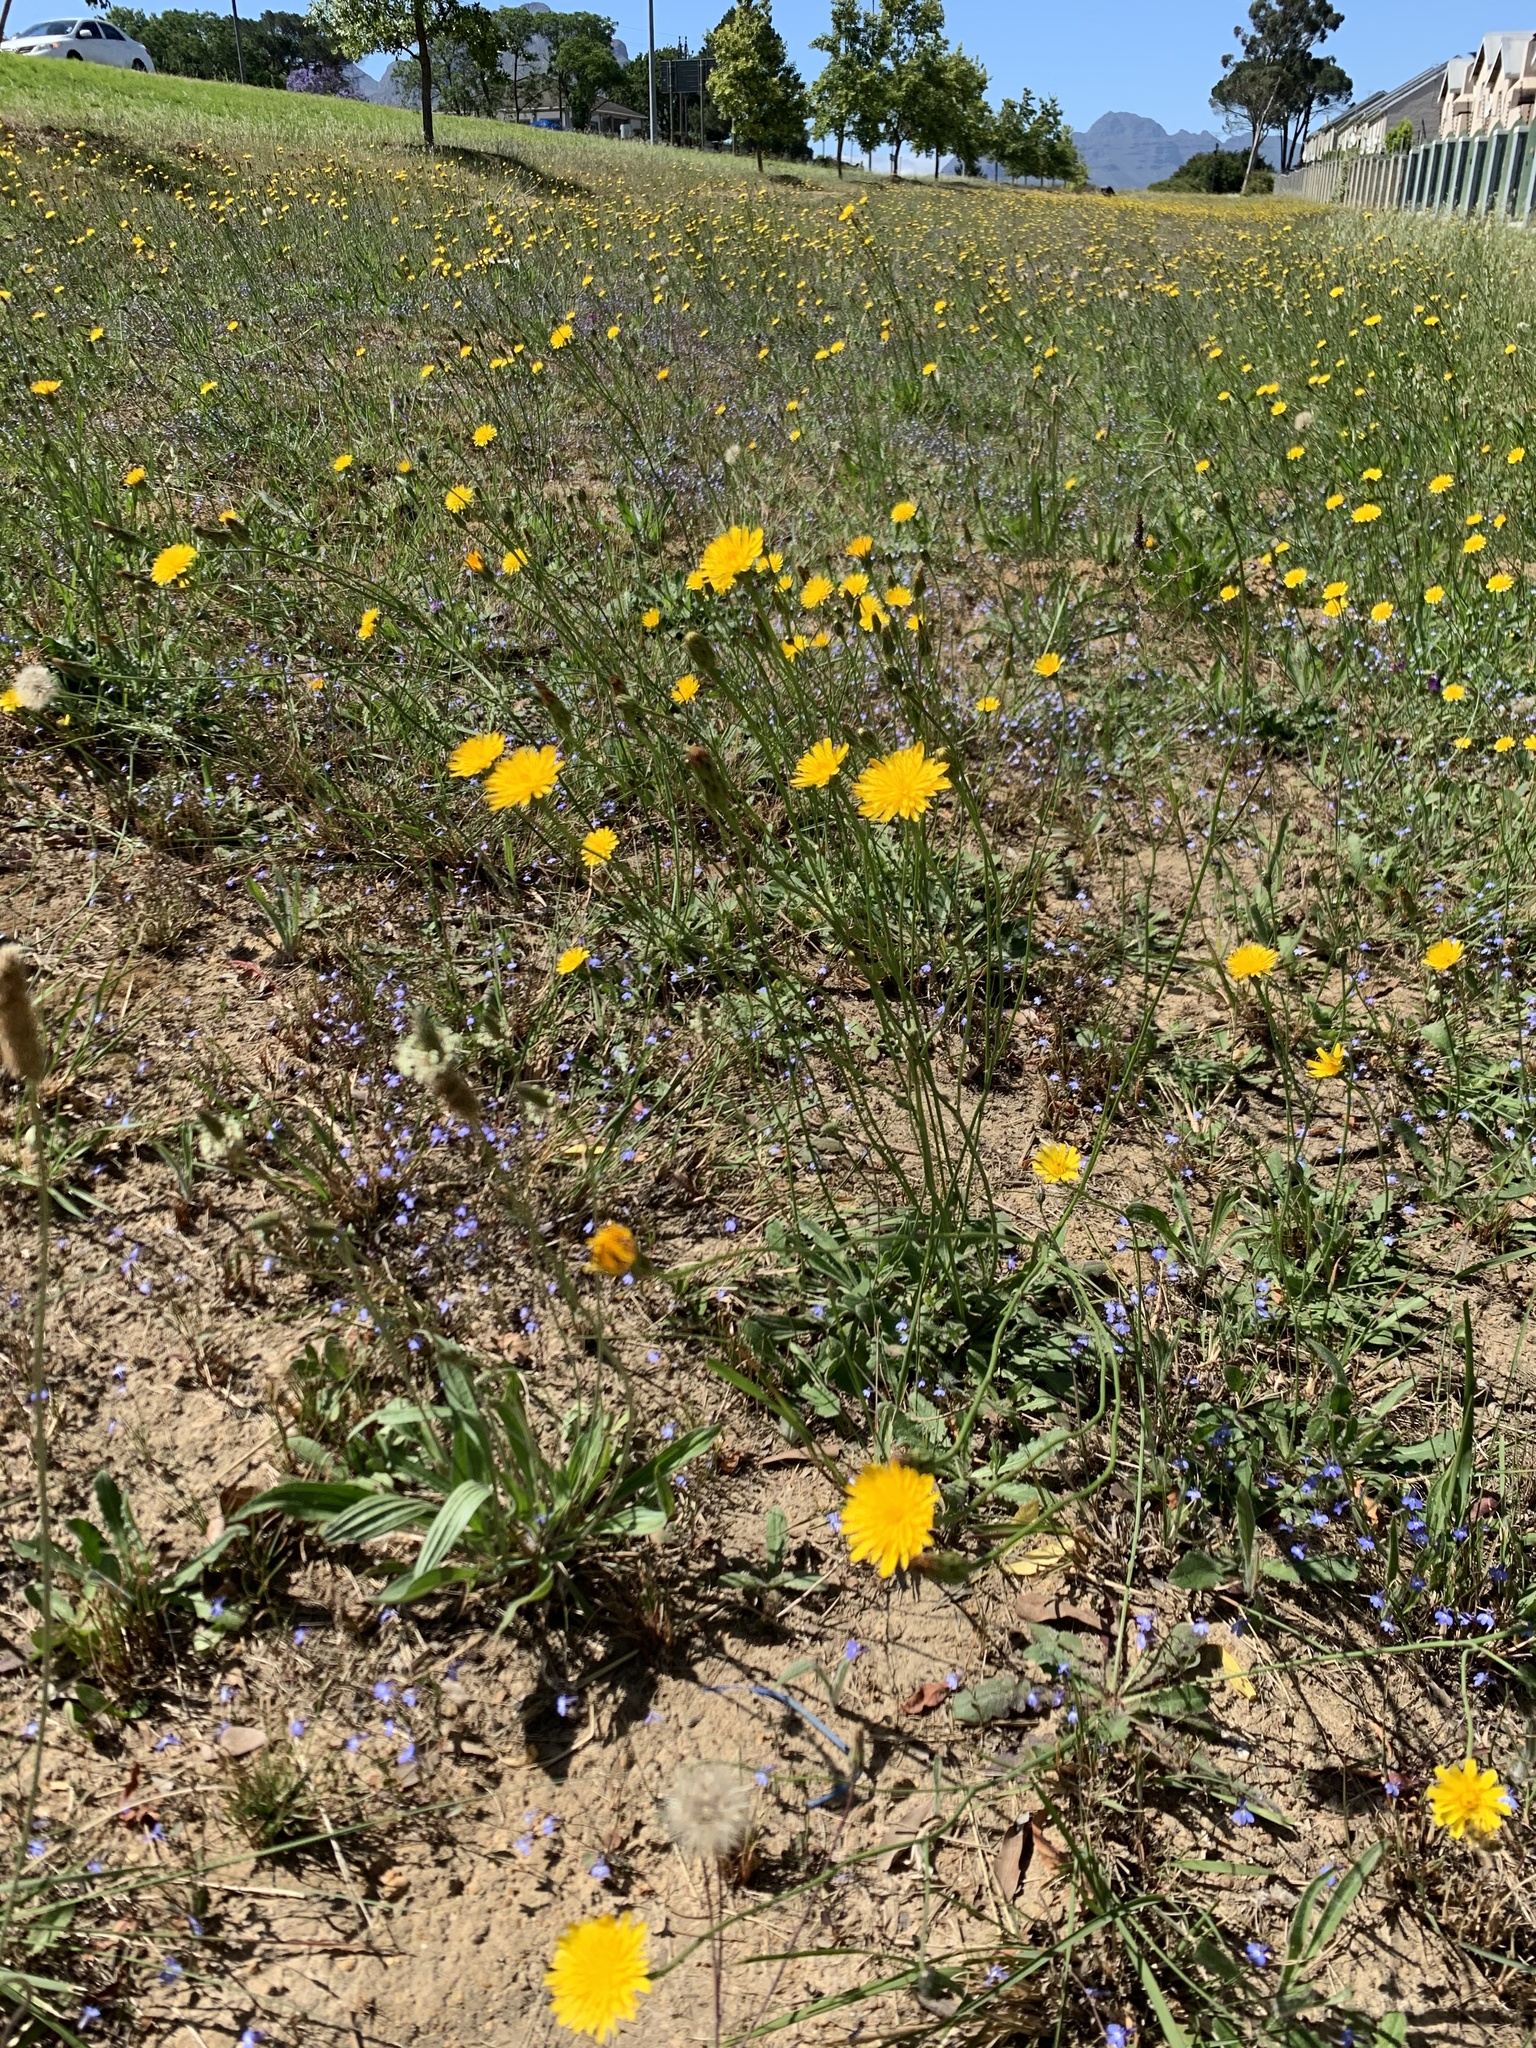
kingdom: Plantae
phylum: Tracheophyta
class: Magnoliopsida
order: Asterales
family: Asteraceae
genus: Hypochaeris
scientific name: Hypochaeris radicata
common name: Flatweed
